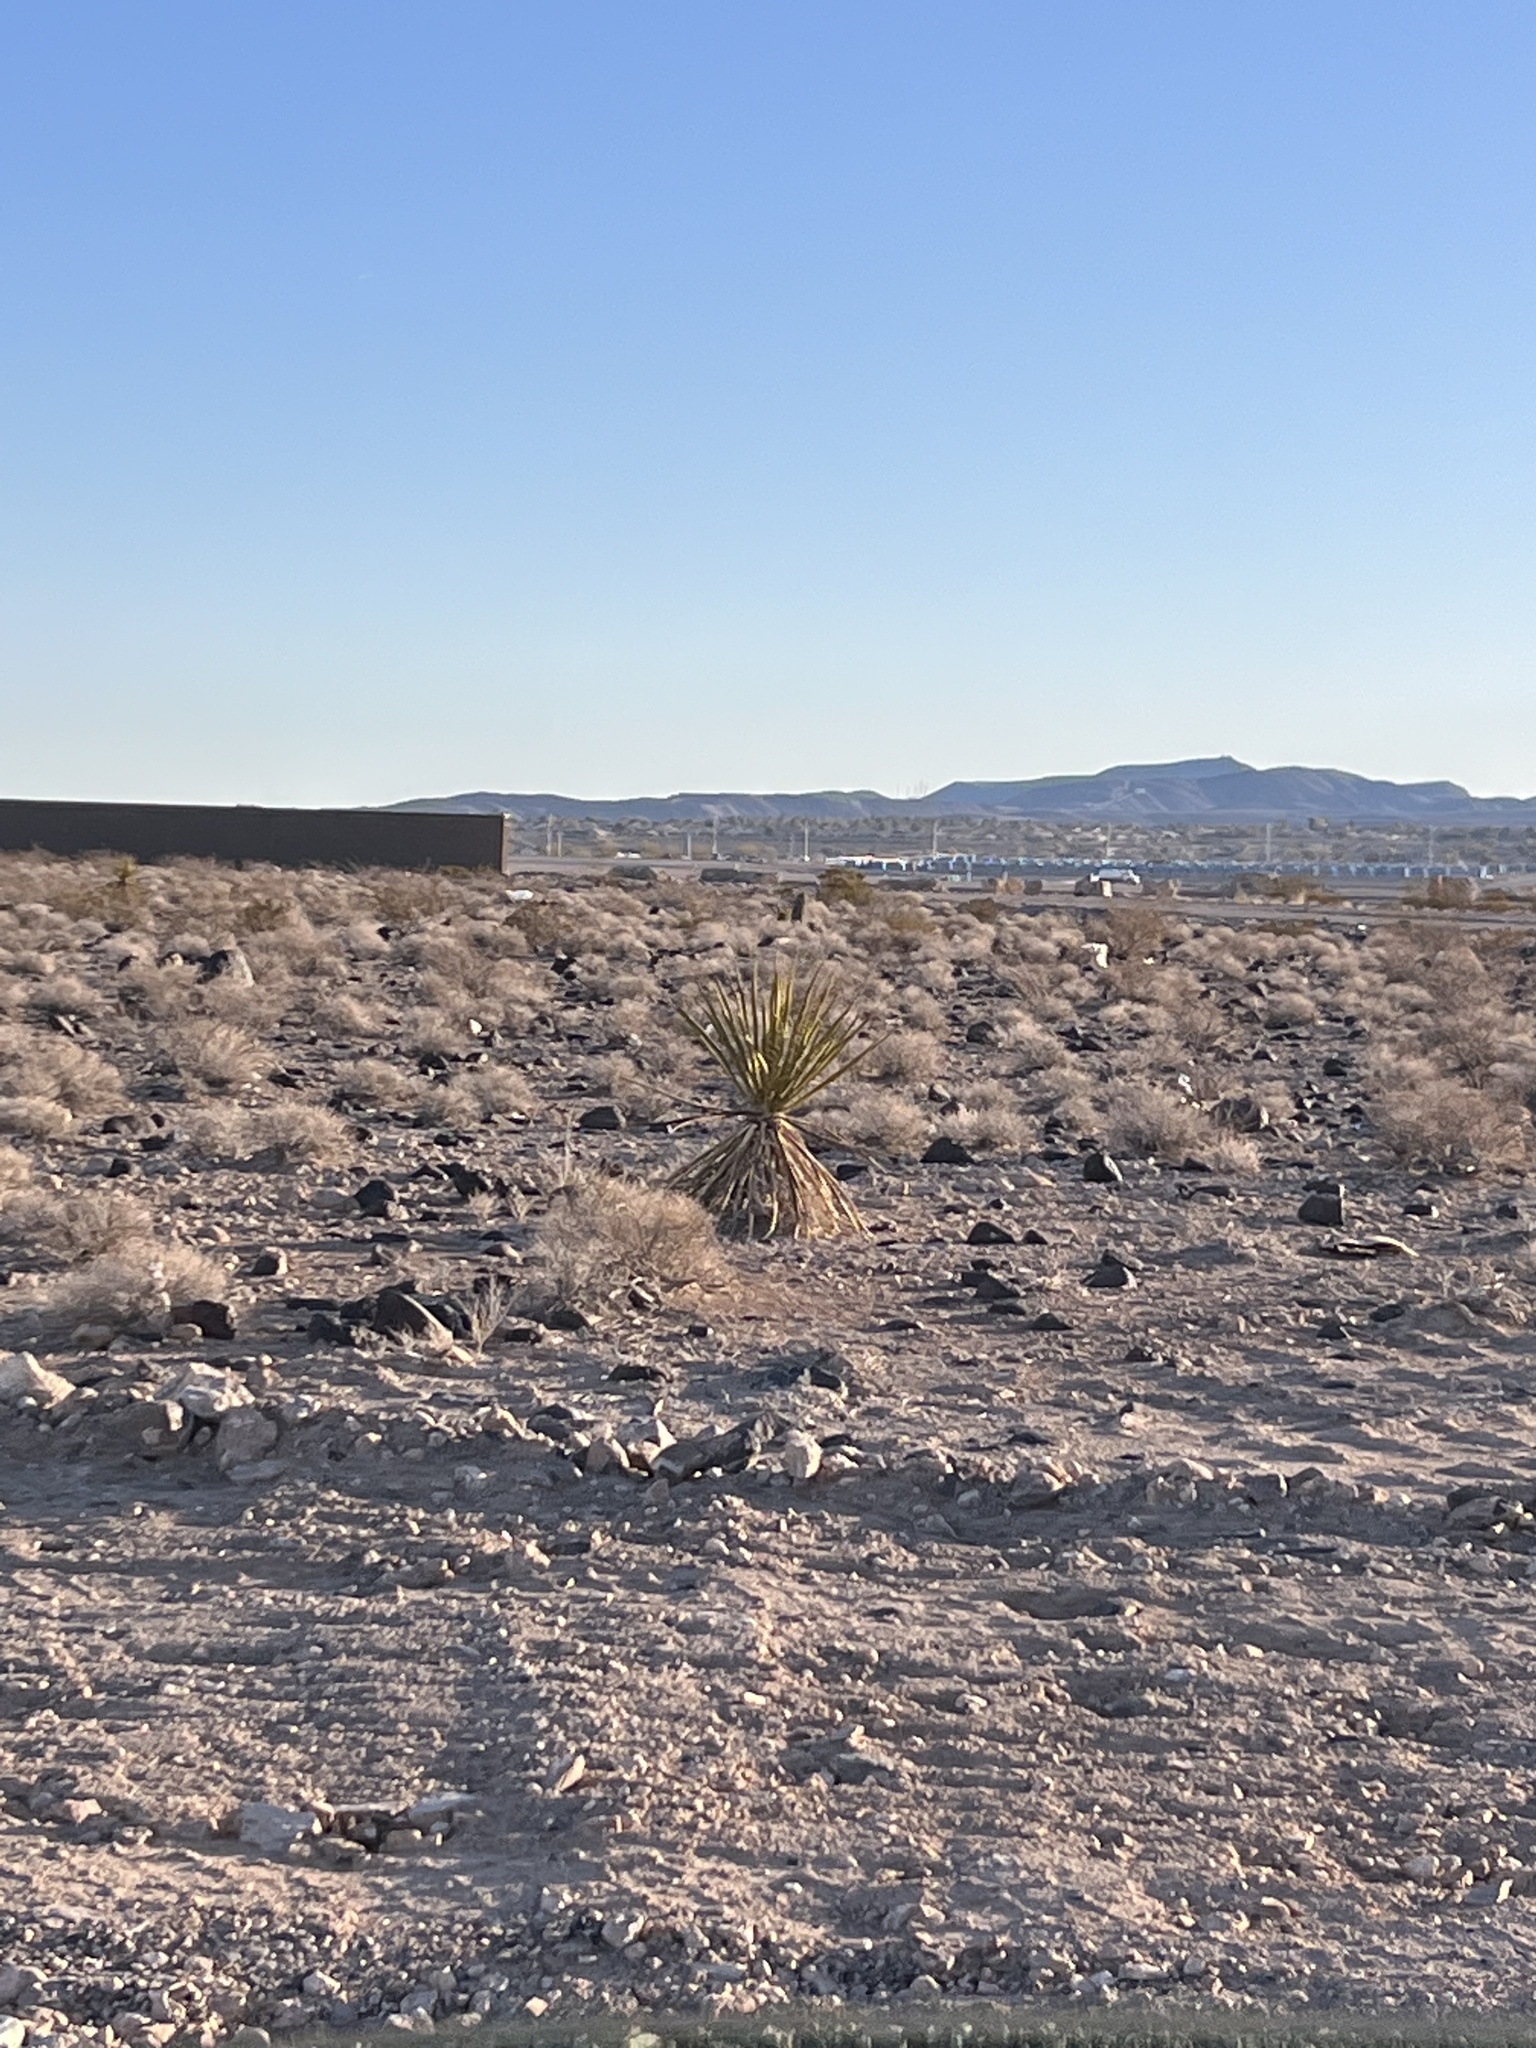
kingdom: Plantae
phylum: Tracheophyta
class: Liliopsida
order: Asparagales
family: Asparagaceae
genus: Yucca
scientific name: Yucca schidigera
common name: Mojave yucca
